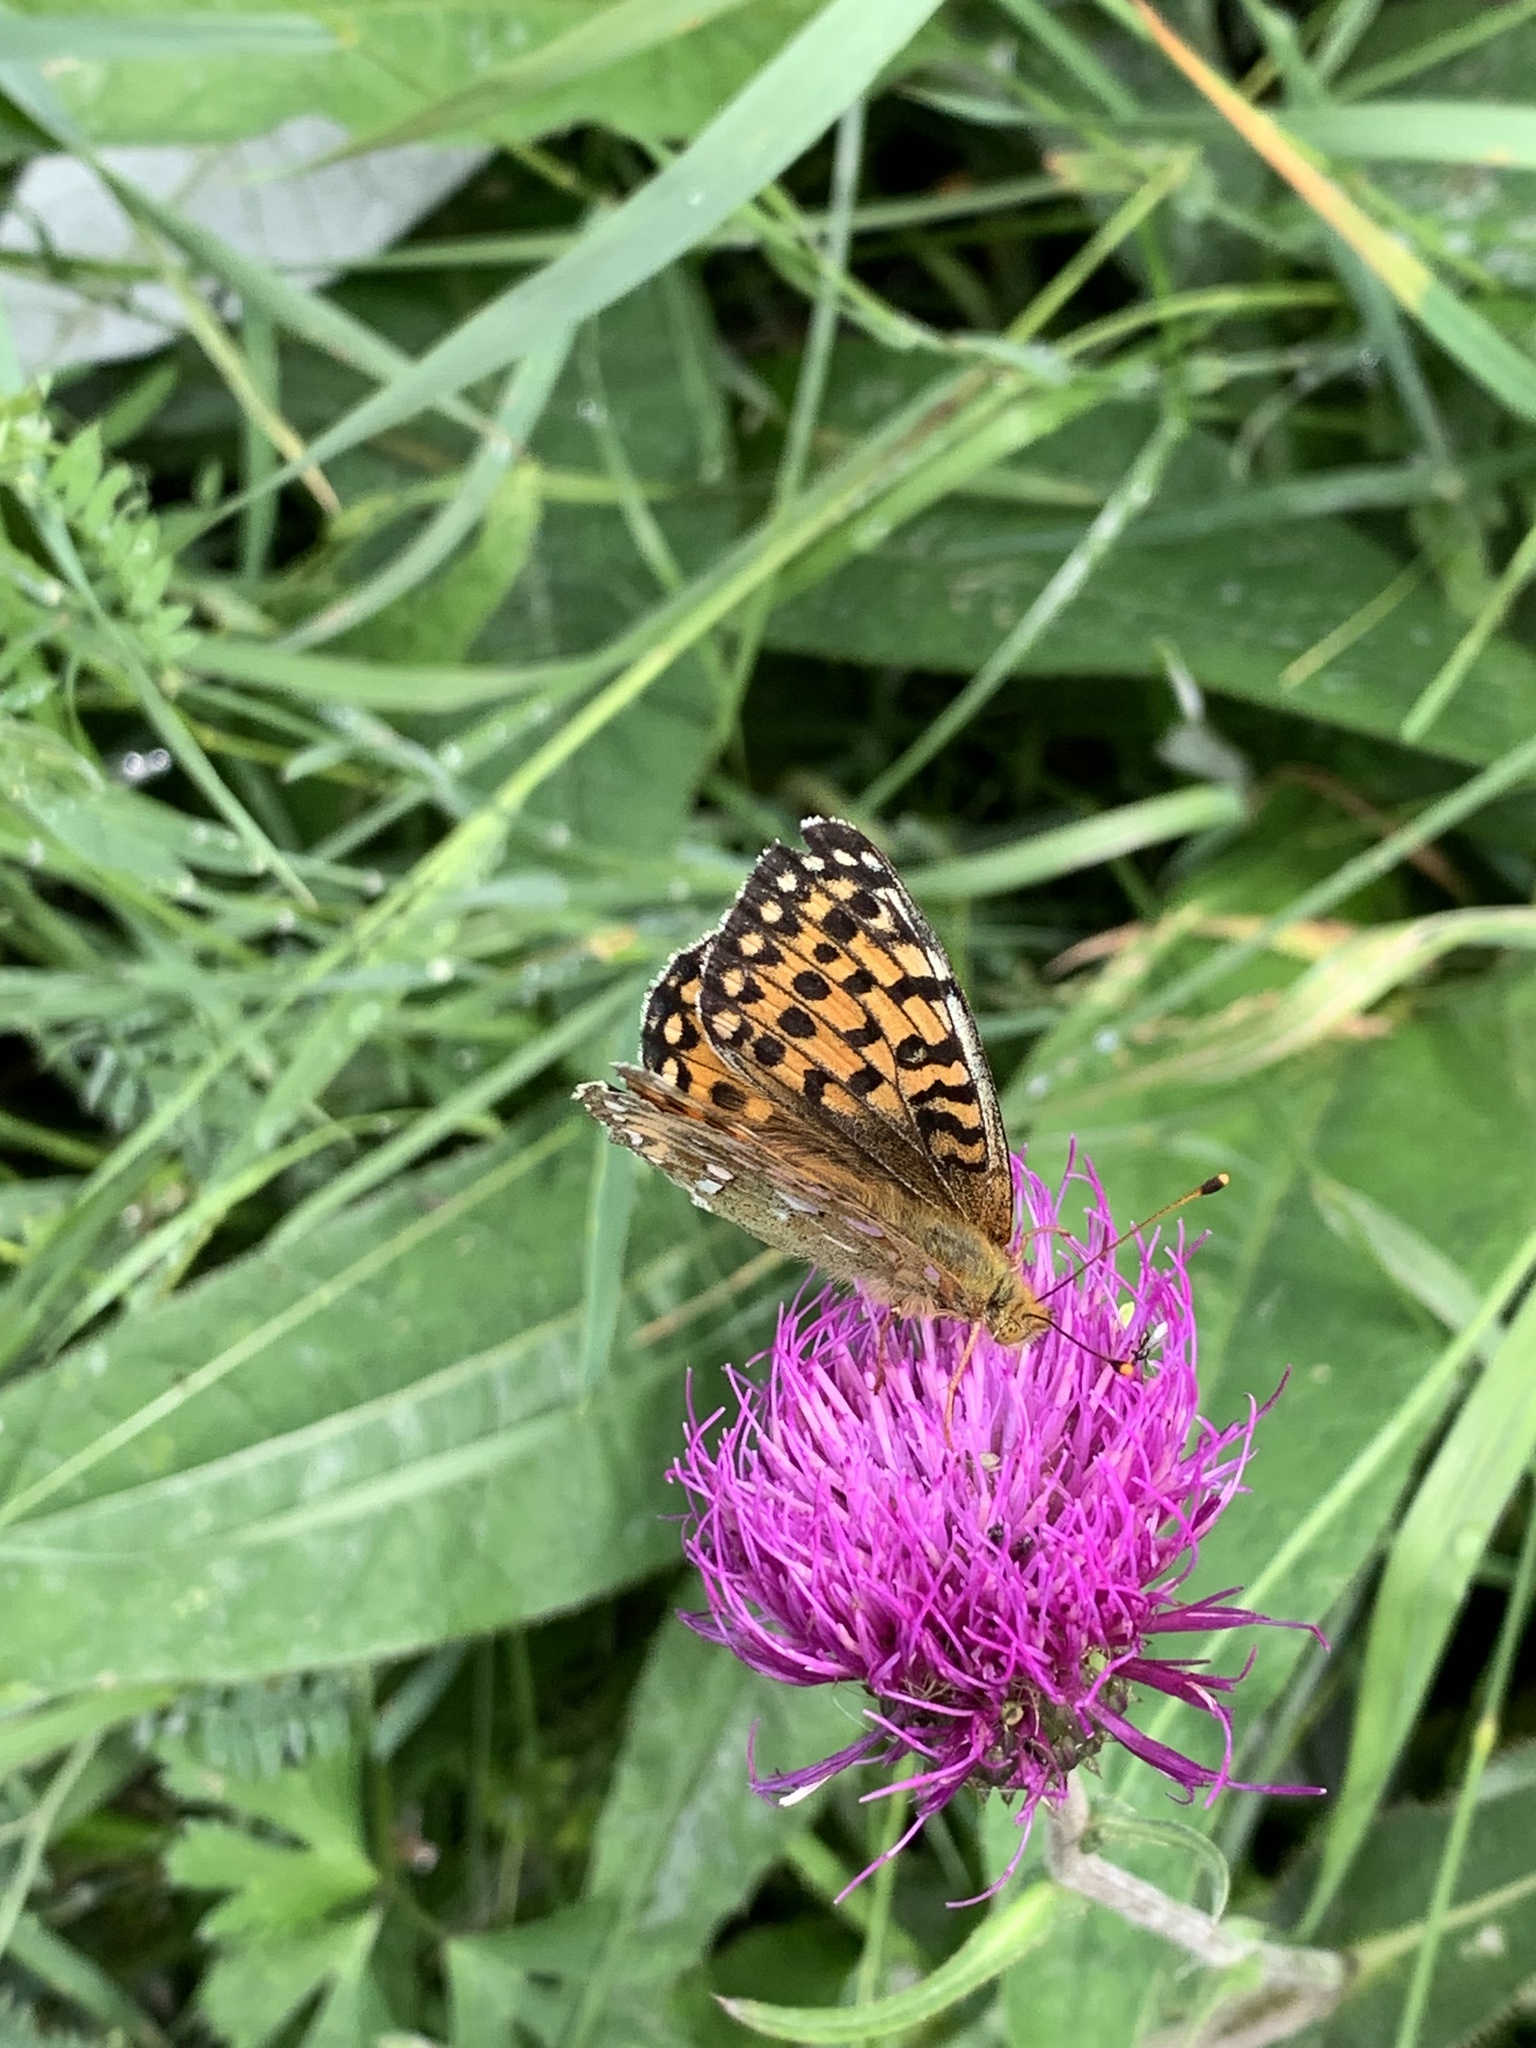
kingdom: Animalia
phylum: Arthropoda
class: Insecta
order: Lepidoptera
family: Nymphalidae
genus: Speyeria
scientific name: Speyeria aglaja
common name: Dark green fritillary
